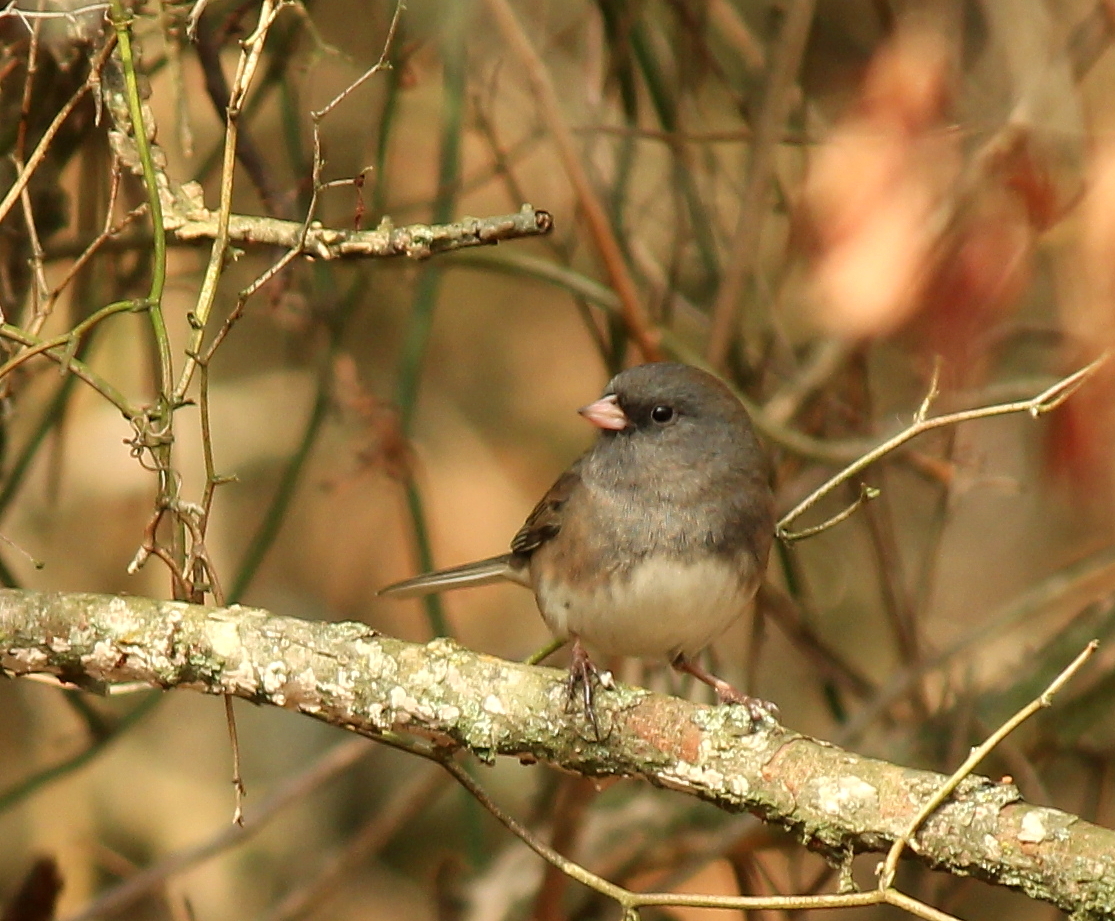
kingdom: Animalia
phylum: Chordata
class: Aves
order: Passeriformes
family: Passerellidae
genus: Junco
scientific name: Junco hyemalis
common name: Dark-eyed junco
